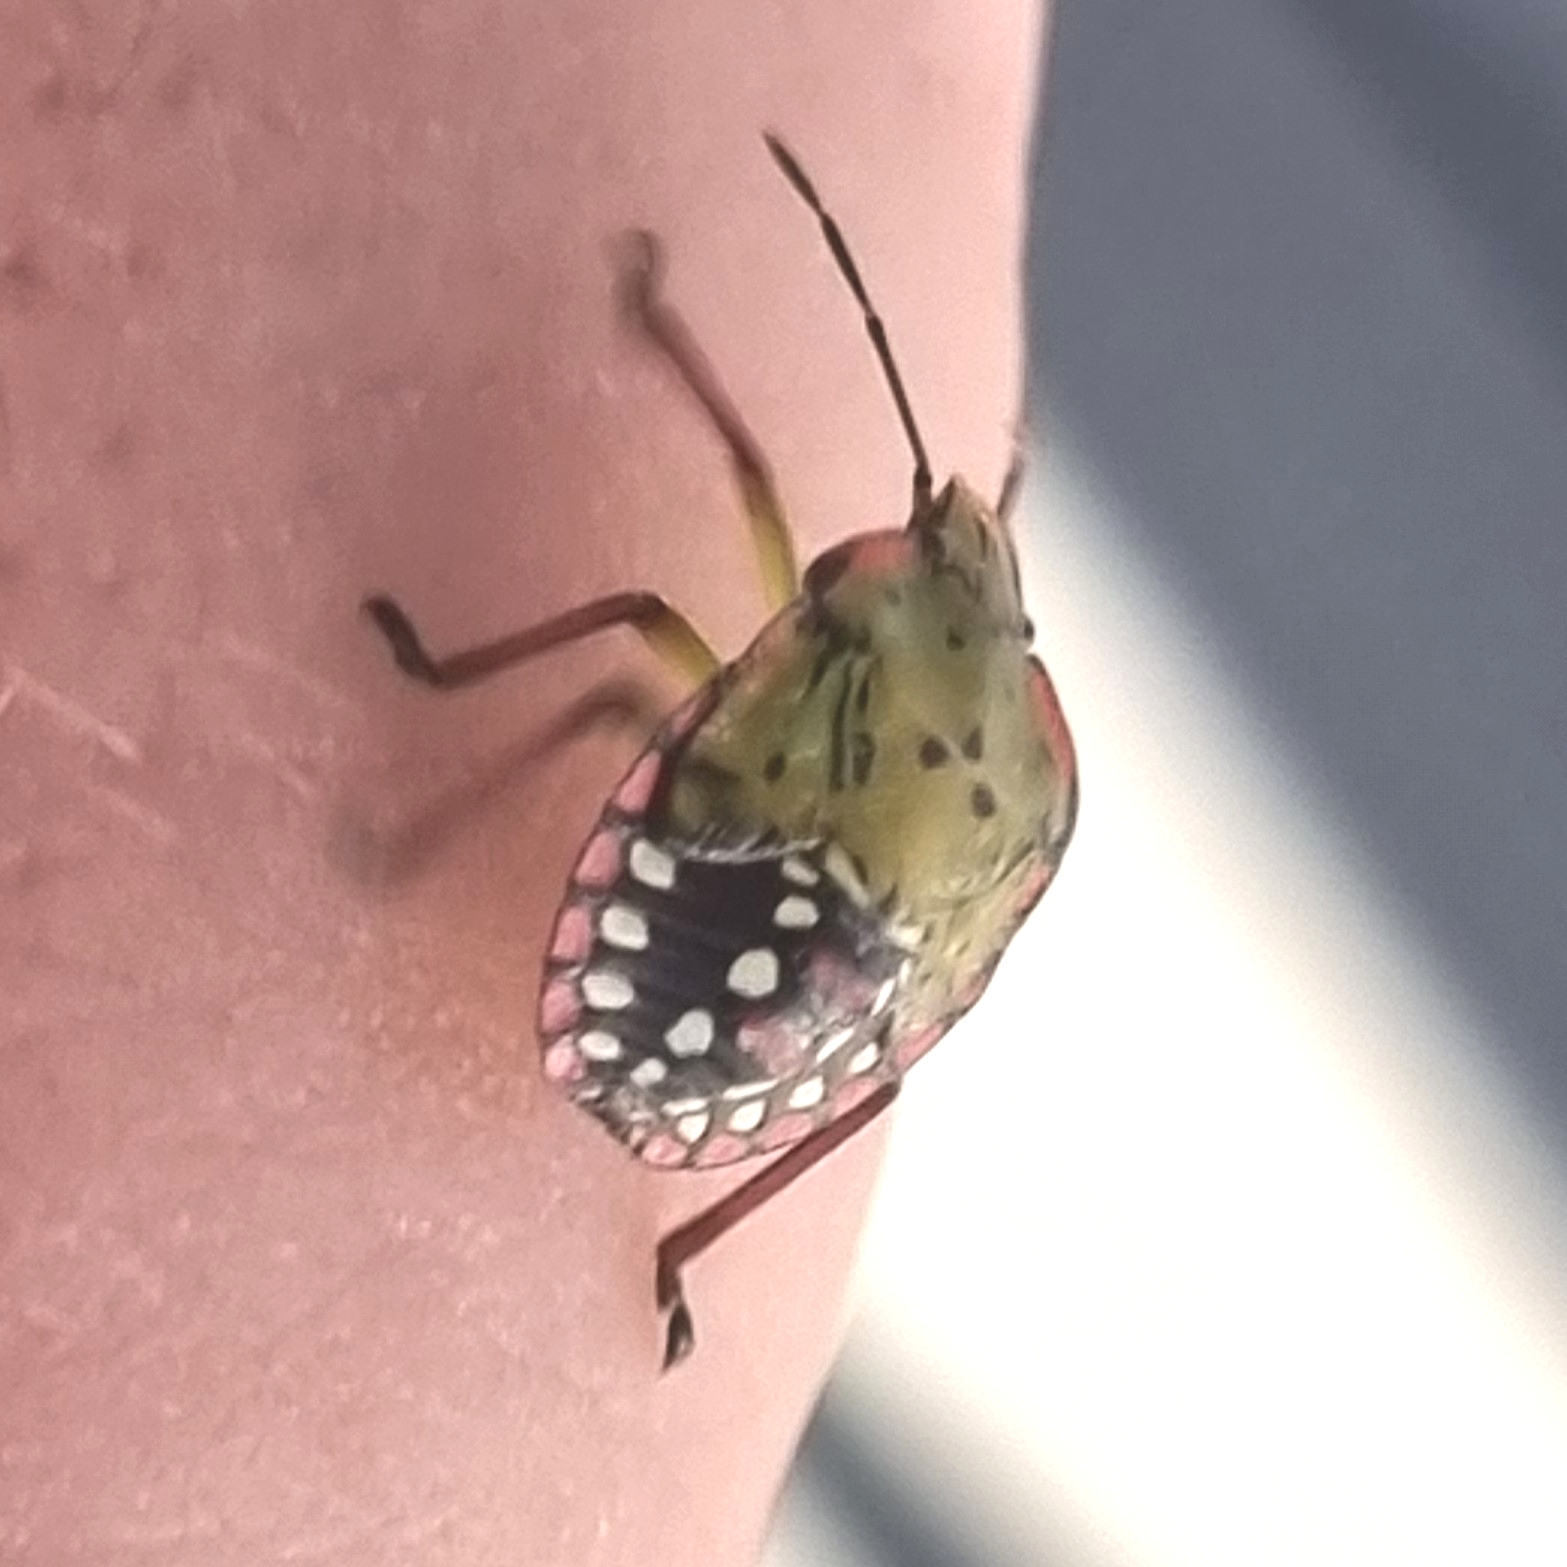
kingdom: Animalia
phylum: Arthropoda
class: Insecta
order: Hemiptera
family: Pentatomidae
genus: Nezara
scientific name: Nezara viridula
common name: Southern green stink bug
